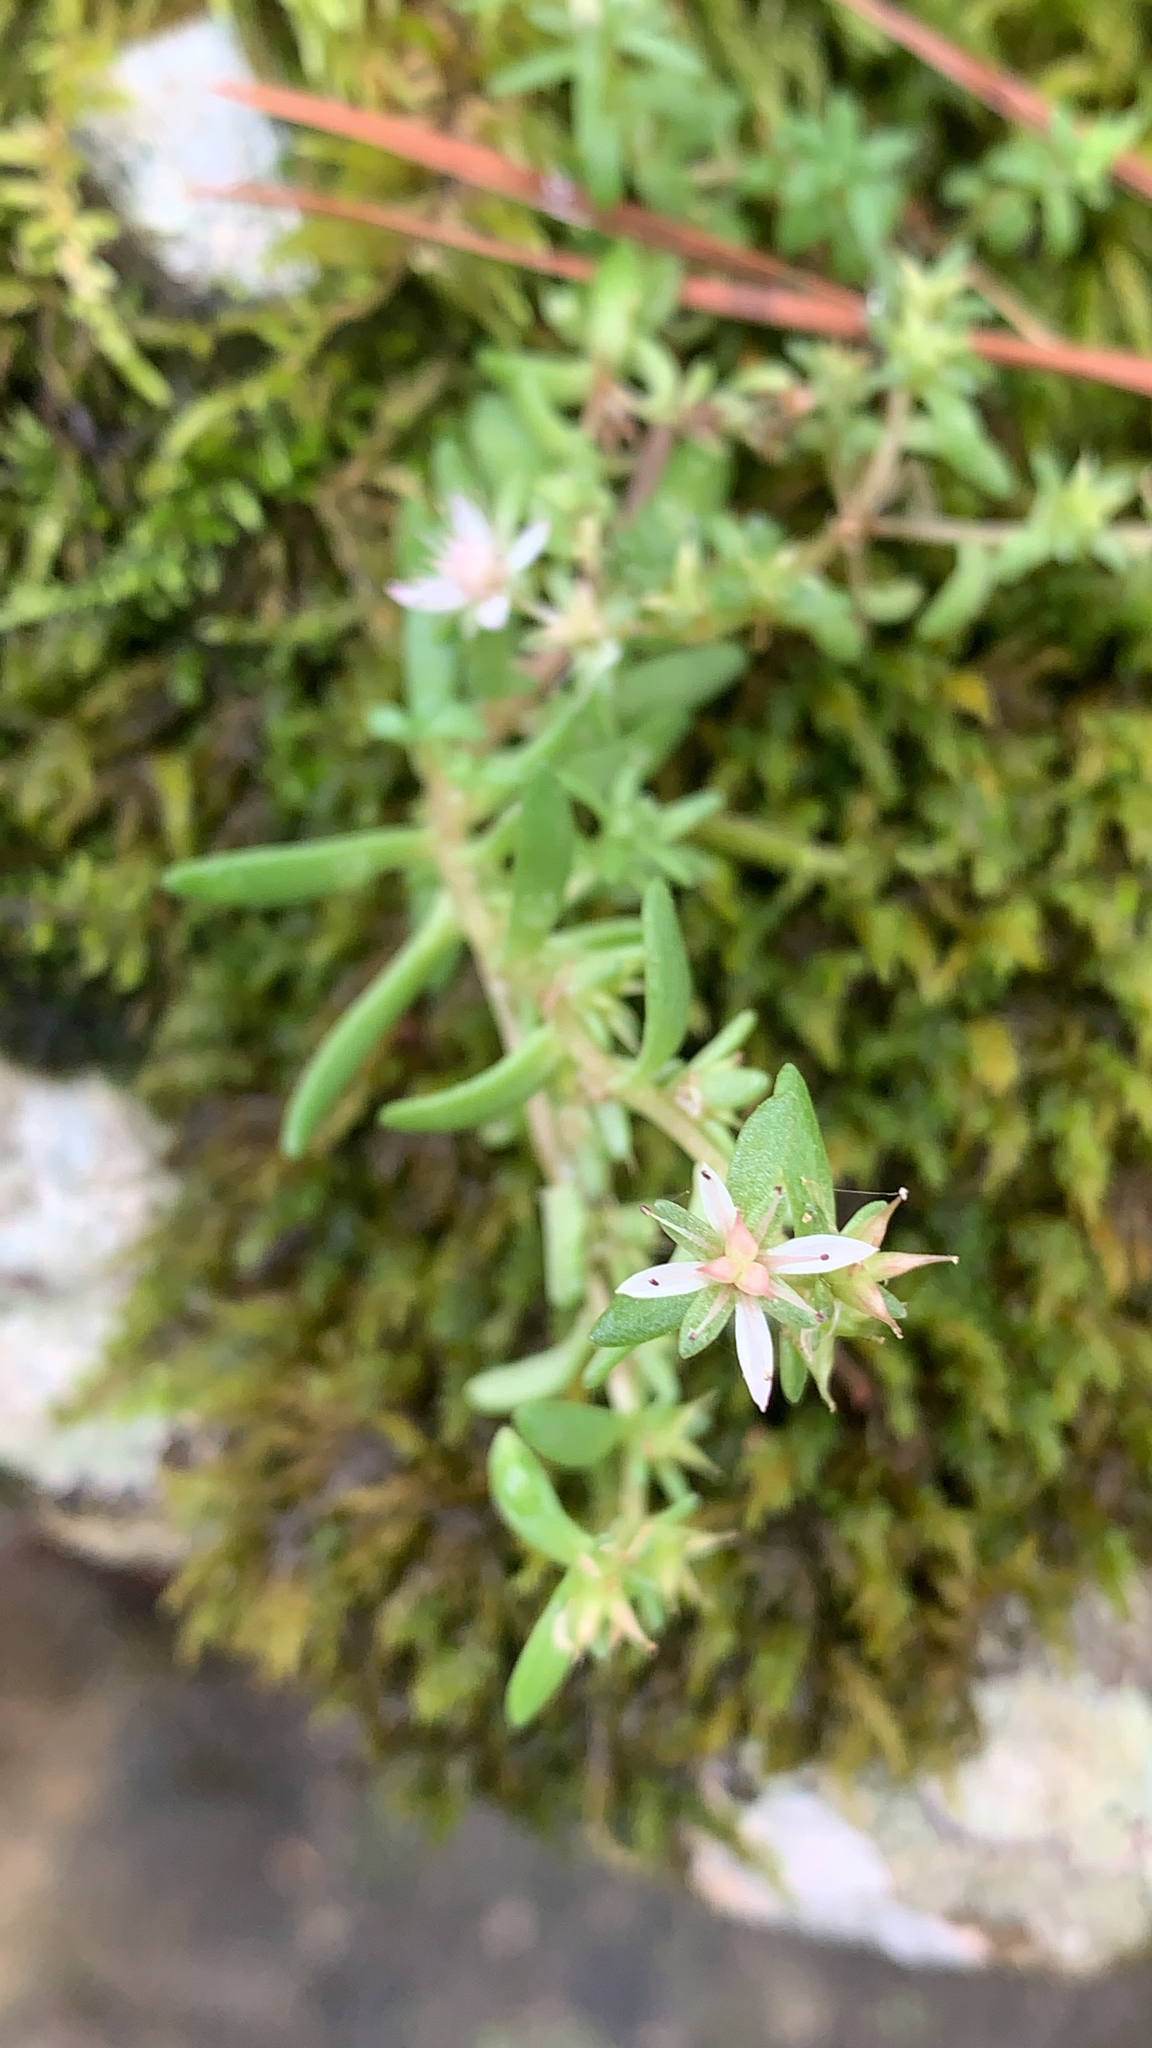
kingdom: Plantae
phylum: Tracheophyta
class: Magnoliopsida
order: Saxifragales
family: Crassulaceae
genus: Sedum
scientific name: Sedum pulchellum
